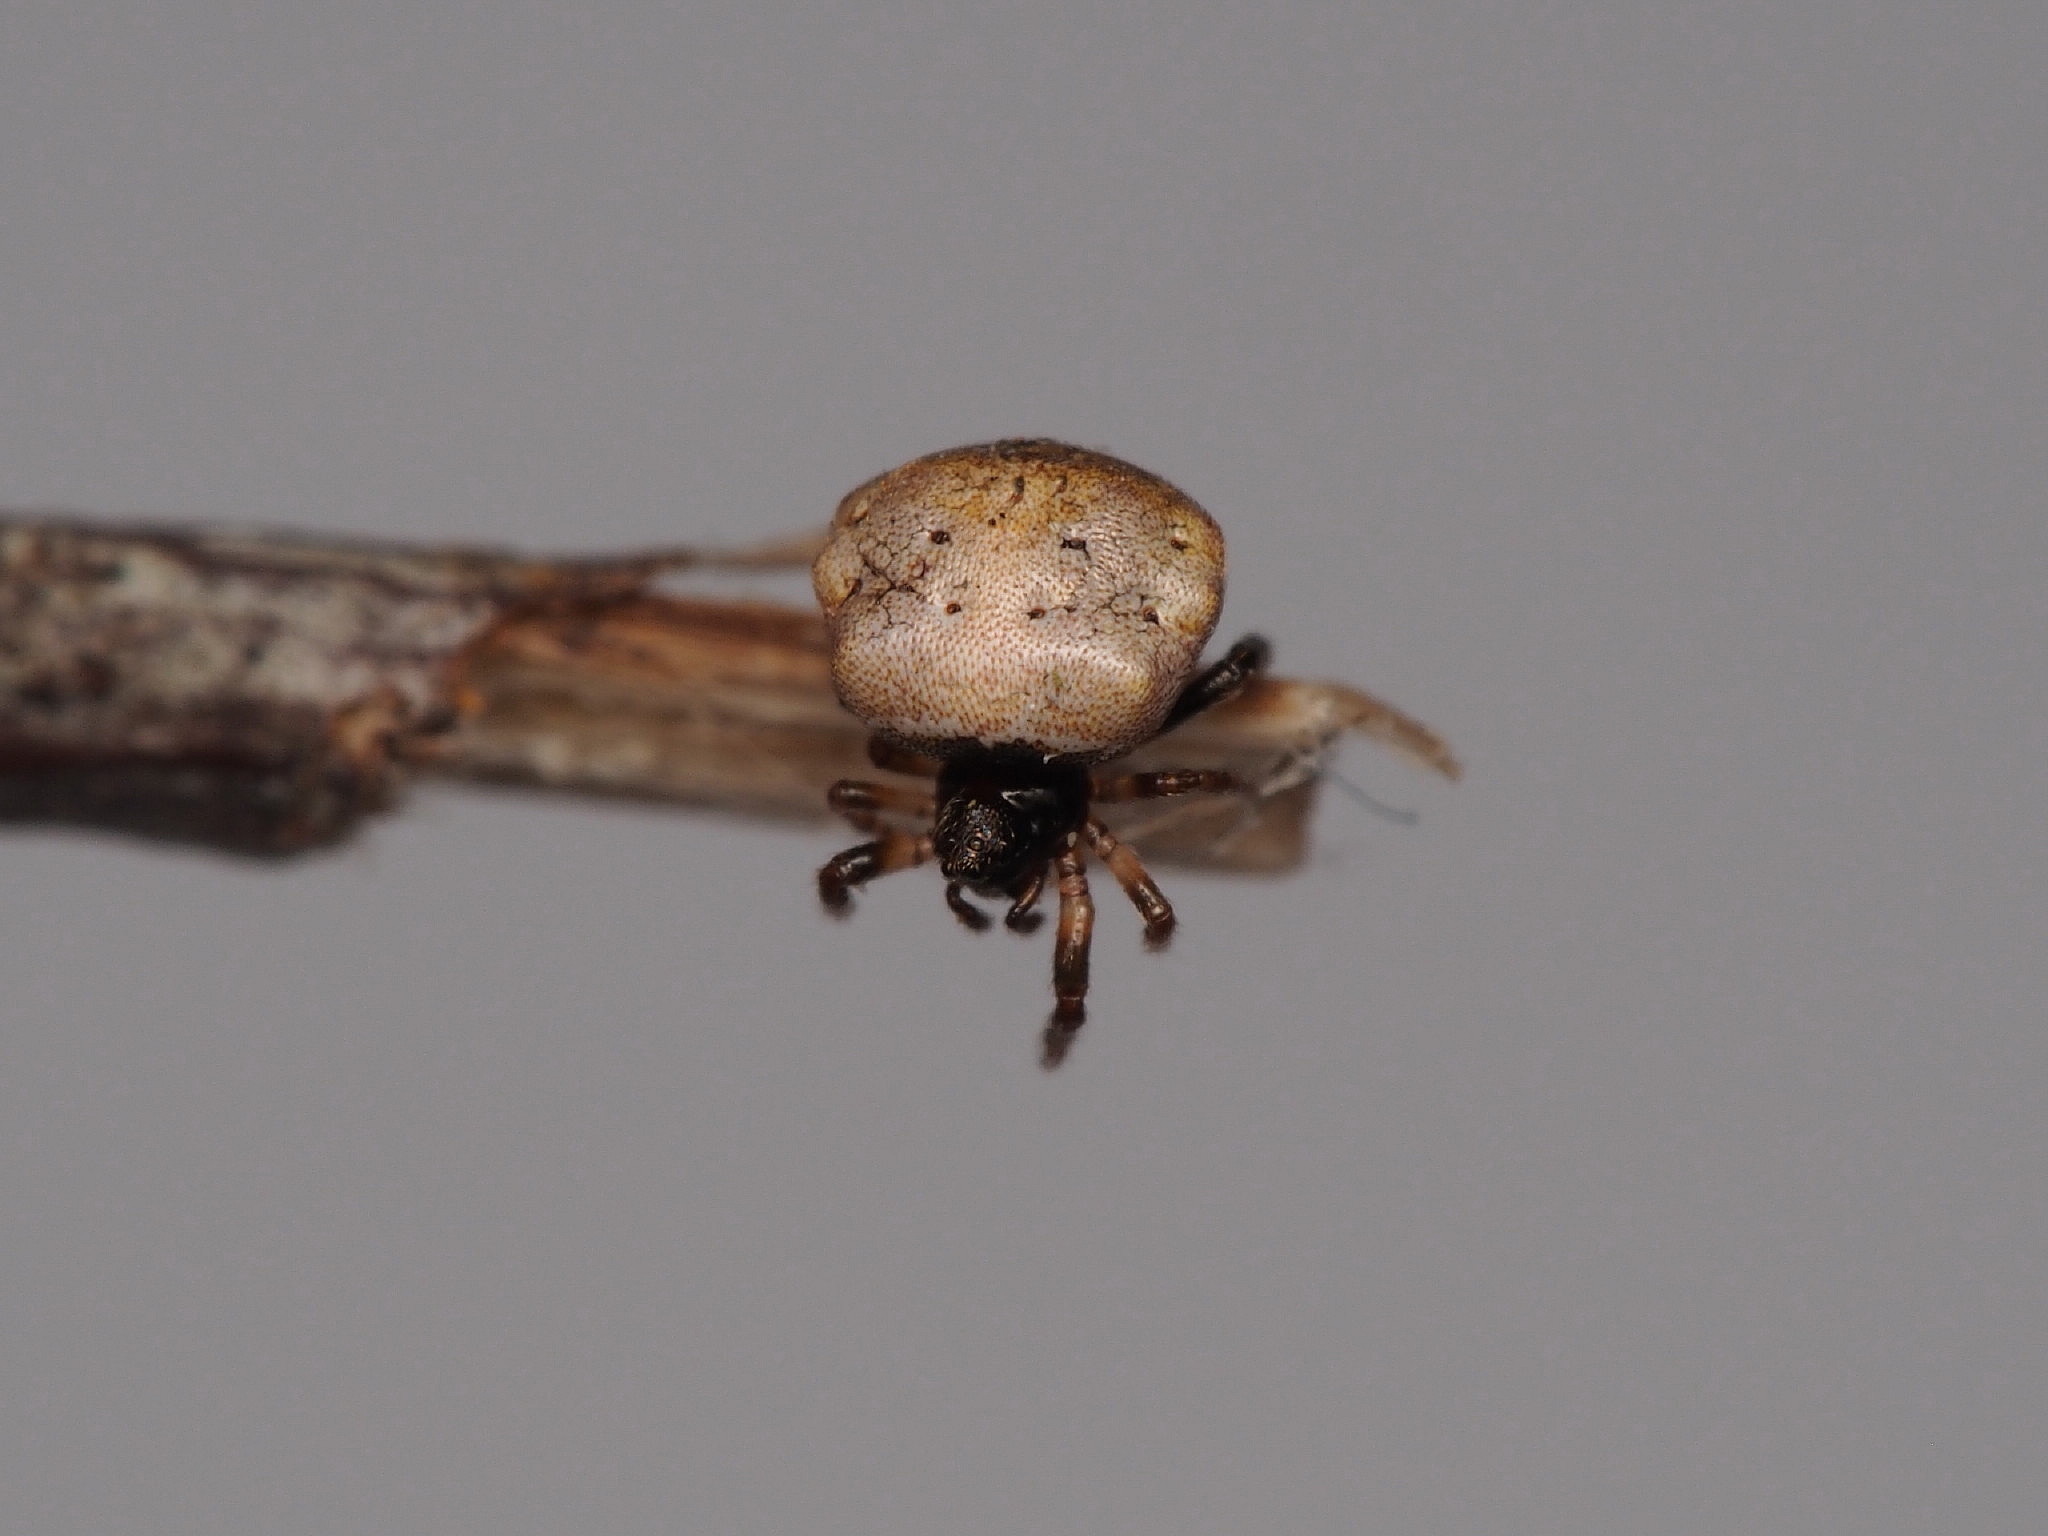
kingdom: Animalia
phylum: Arthropoda
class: Arachnida
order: Araneae
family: Theridiidae
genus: Phoroncidia
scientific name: Phoroncidia quadrata
